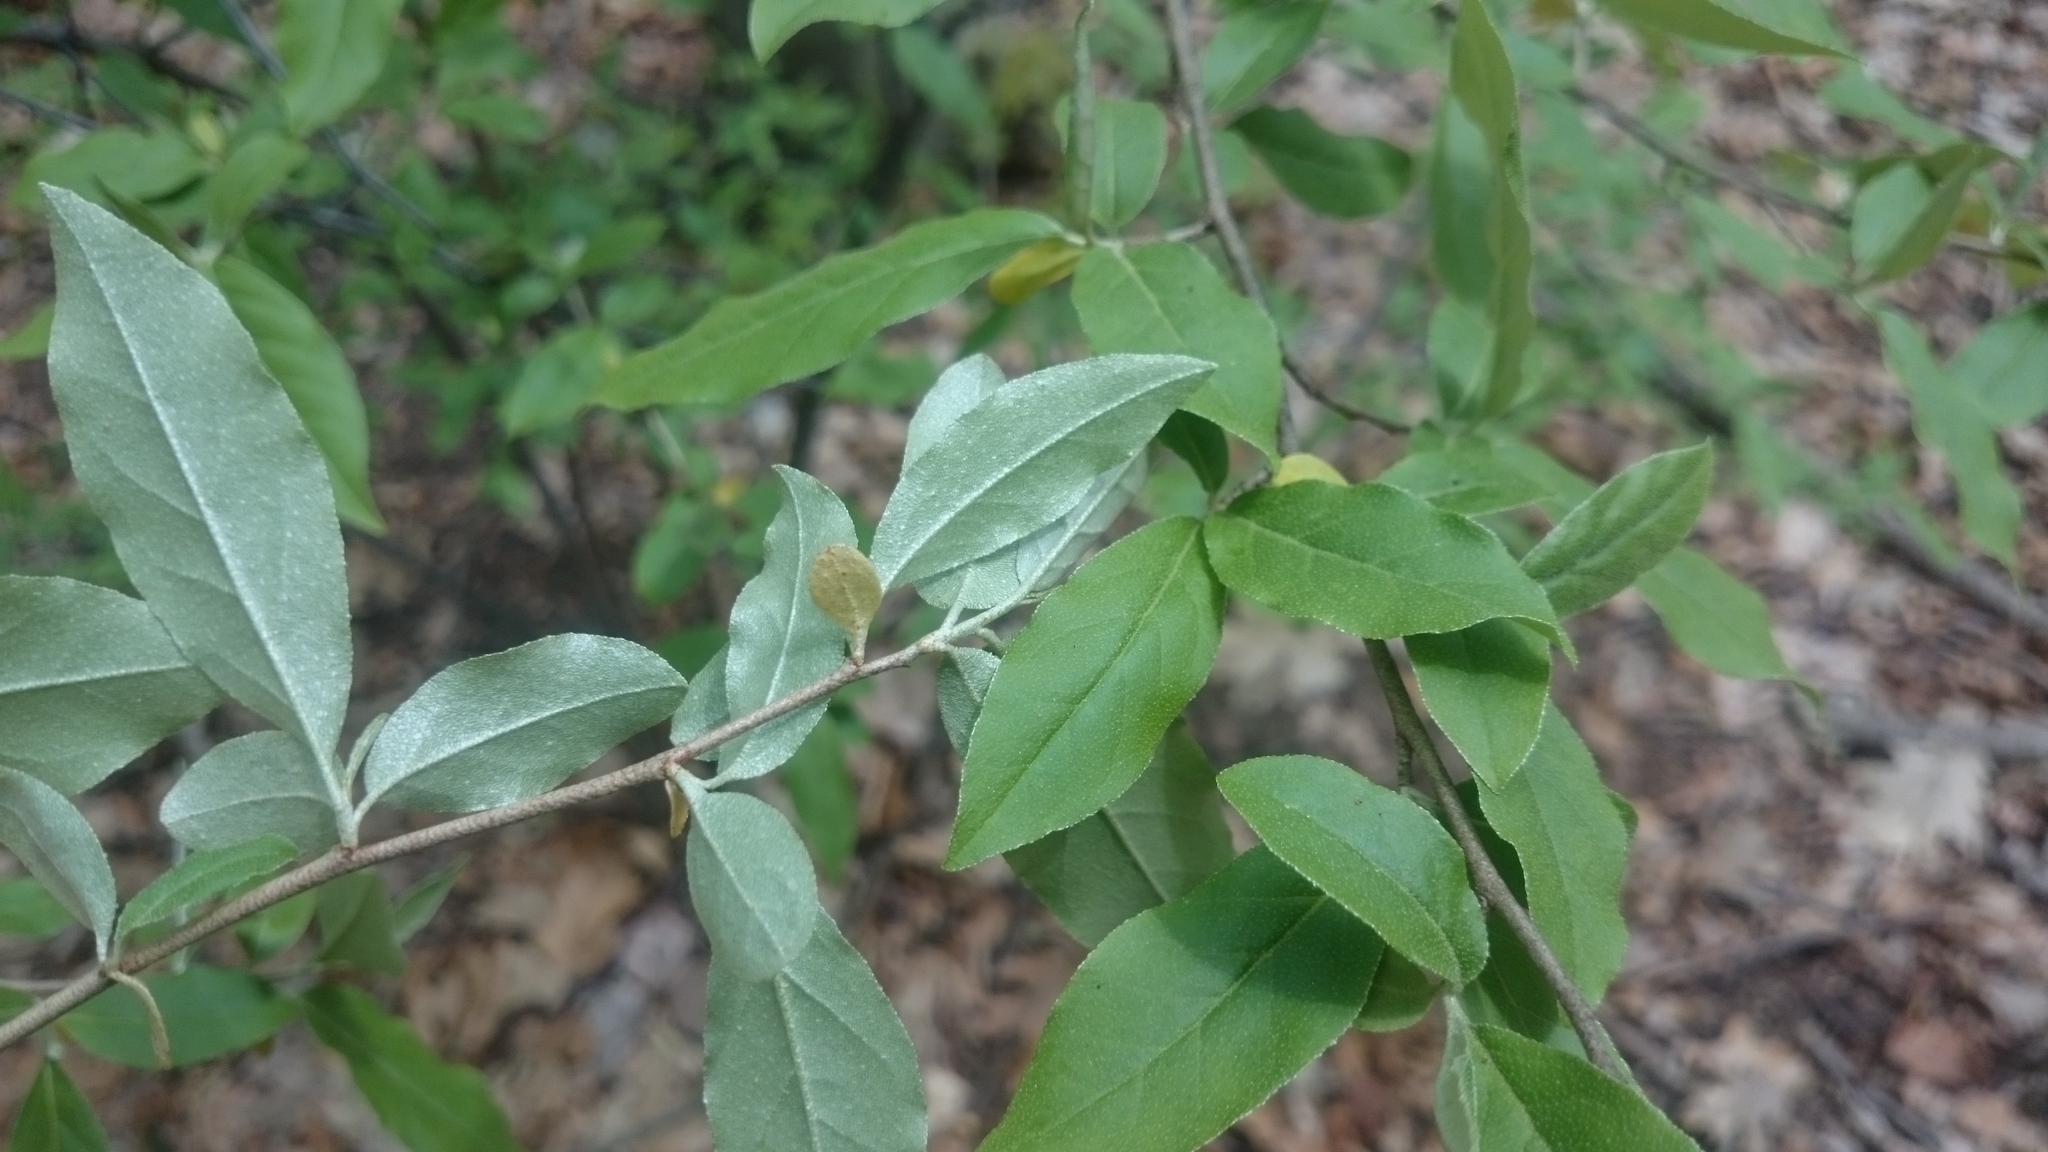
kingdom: Plantae
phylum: Tracheophyta
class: Magnoliopsida
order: Rosales
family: Elaeagnaceae
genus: Elaeagnus
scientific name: Elaeagnus umbellata
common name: Autumn olive
